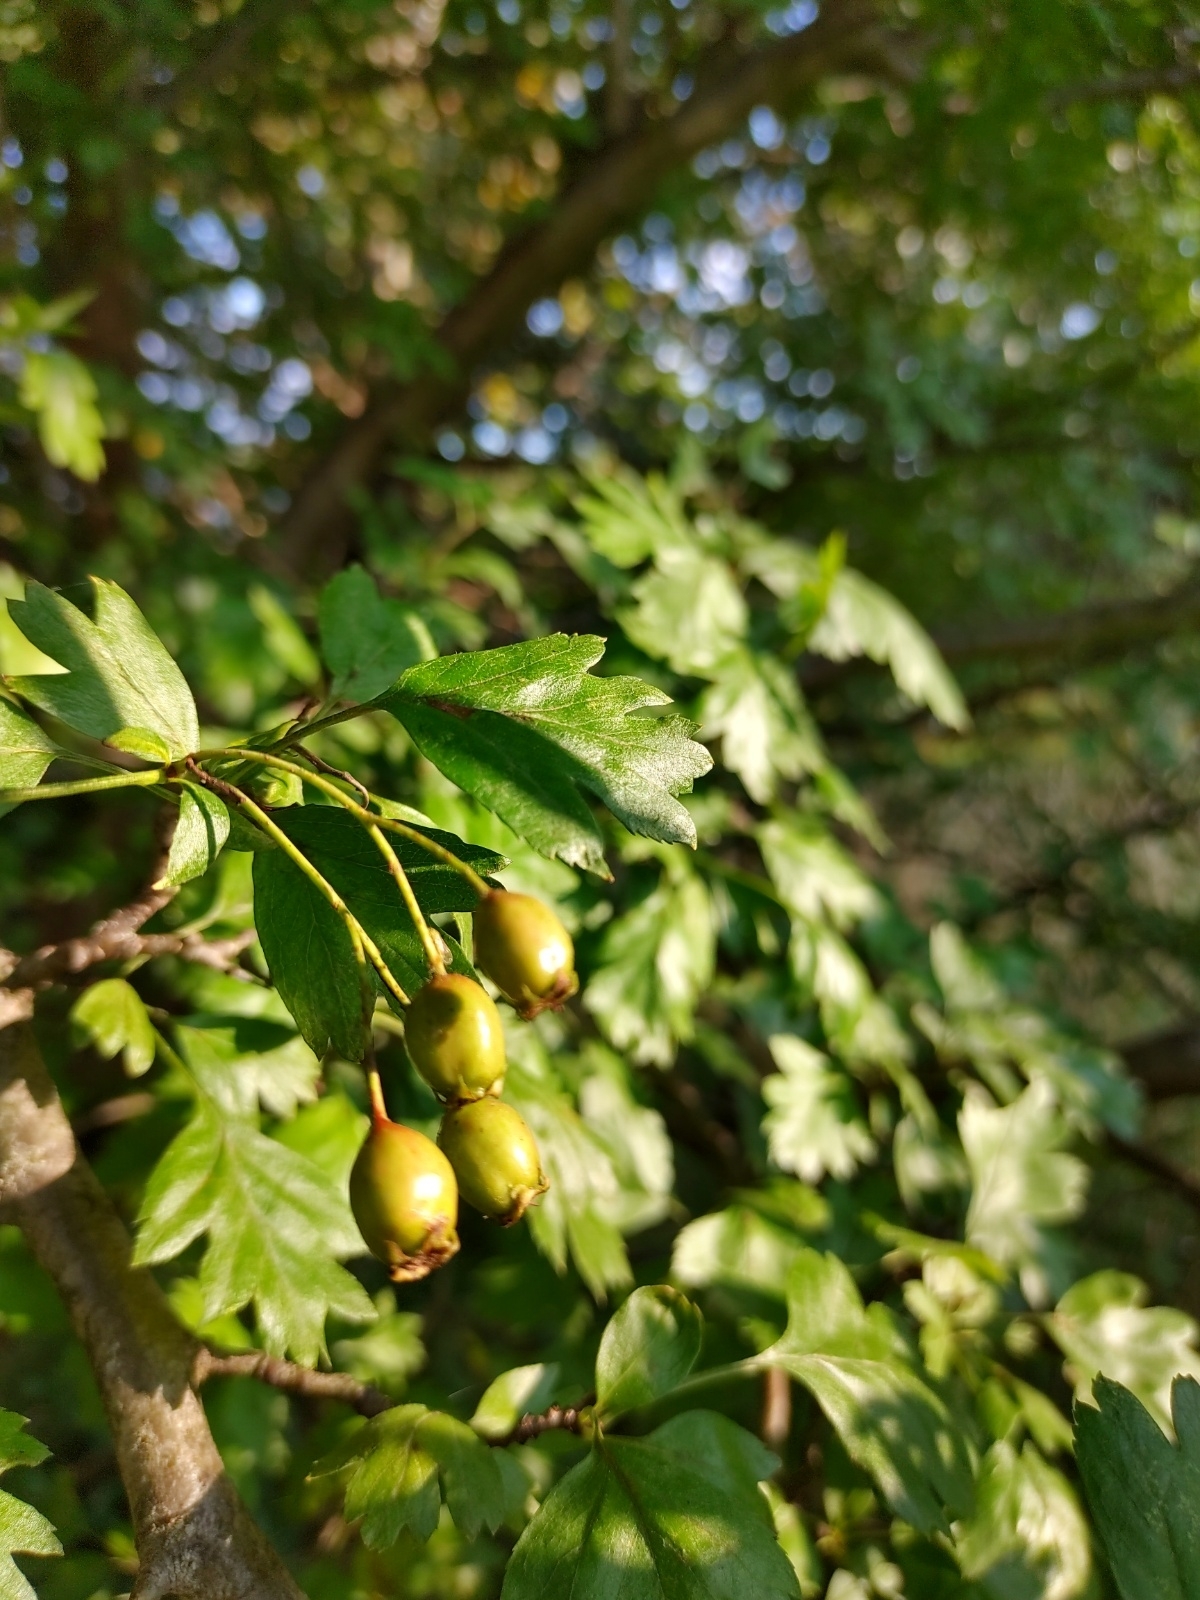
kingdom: Plantae
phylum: Tracheophyta
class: Magnoliopsida
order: Rosales
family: Rosaceae
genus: Crataegus
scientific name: Crataegus monogyna
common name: Hawthorn
